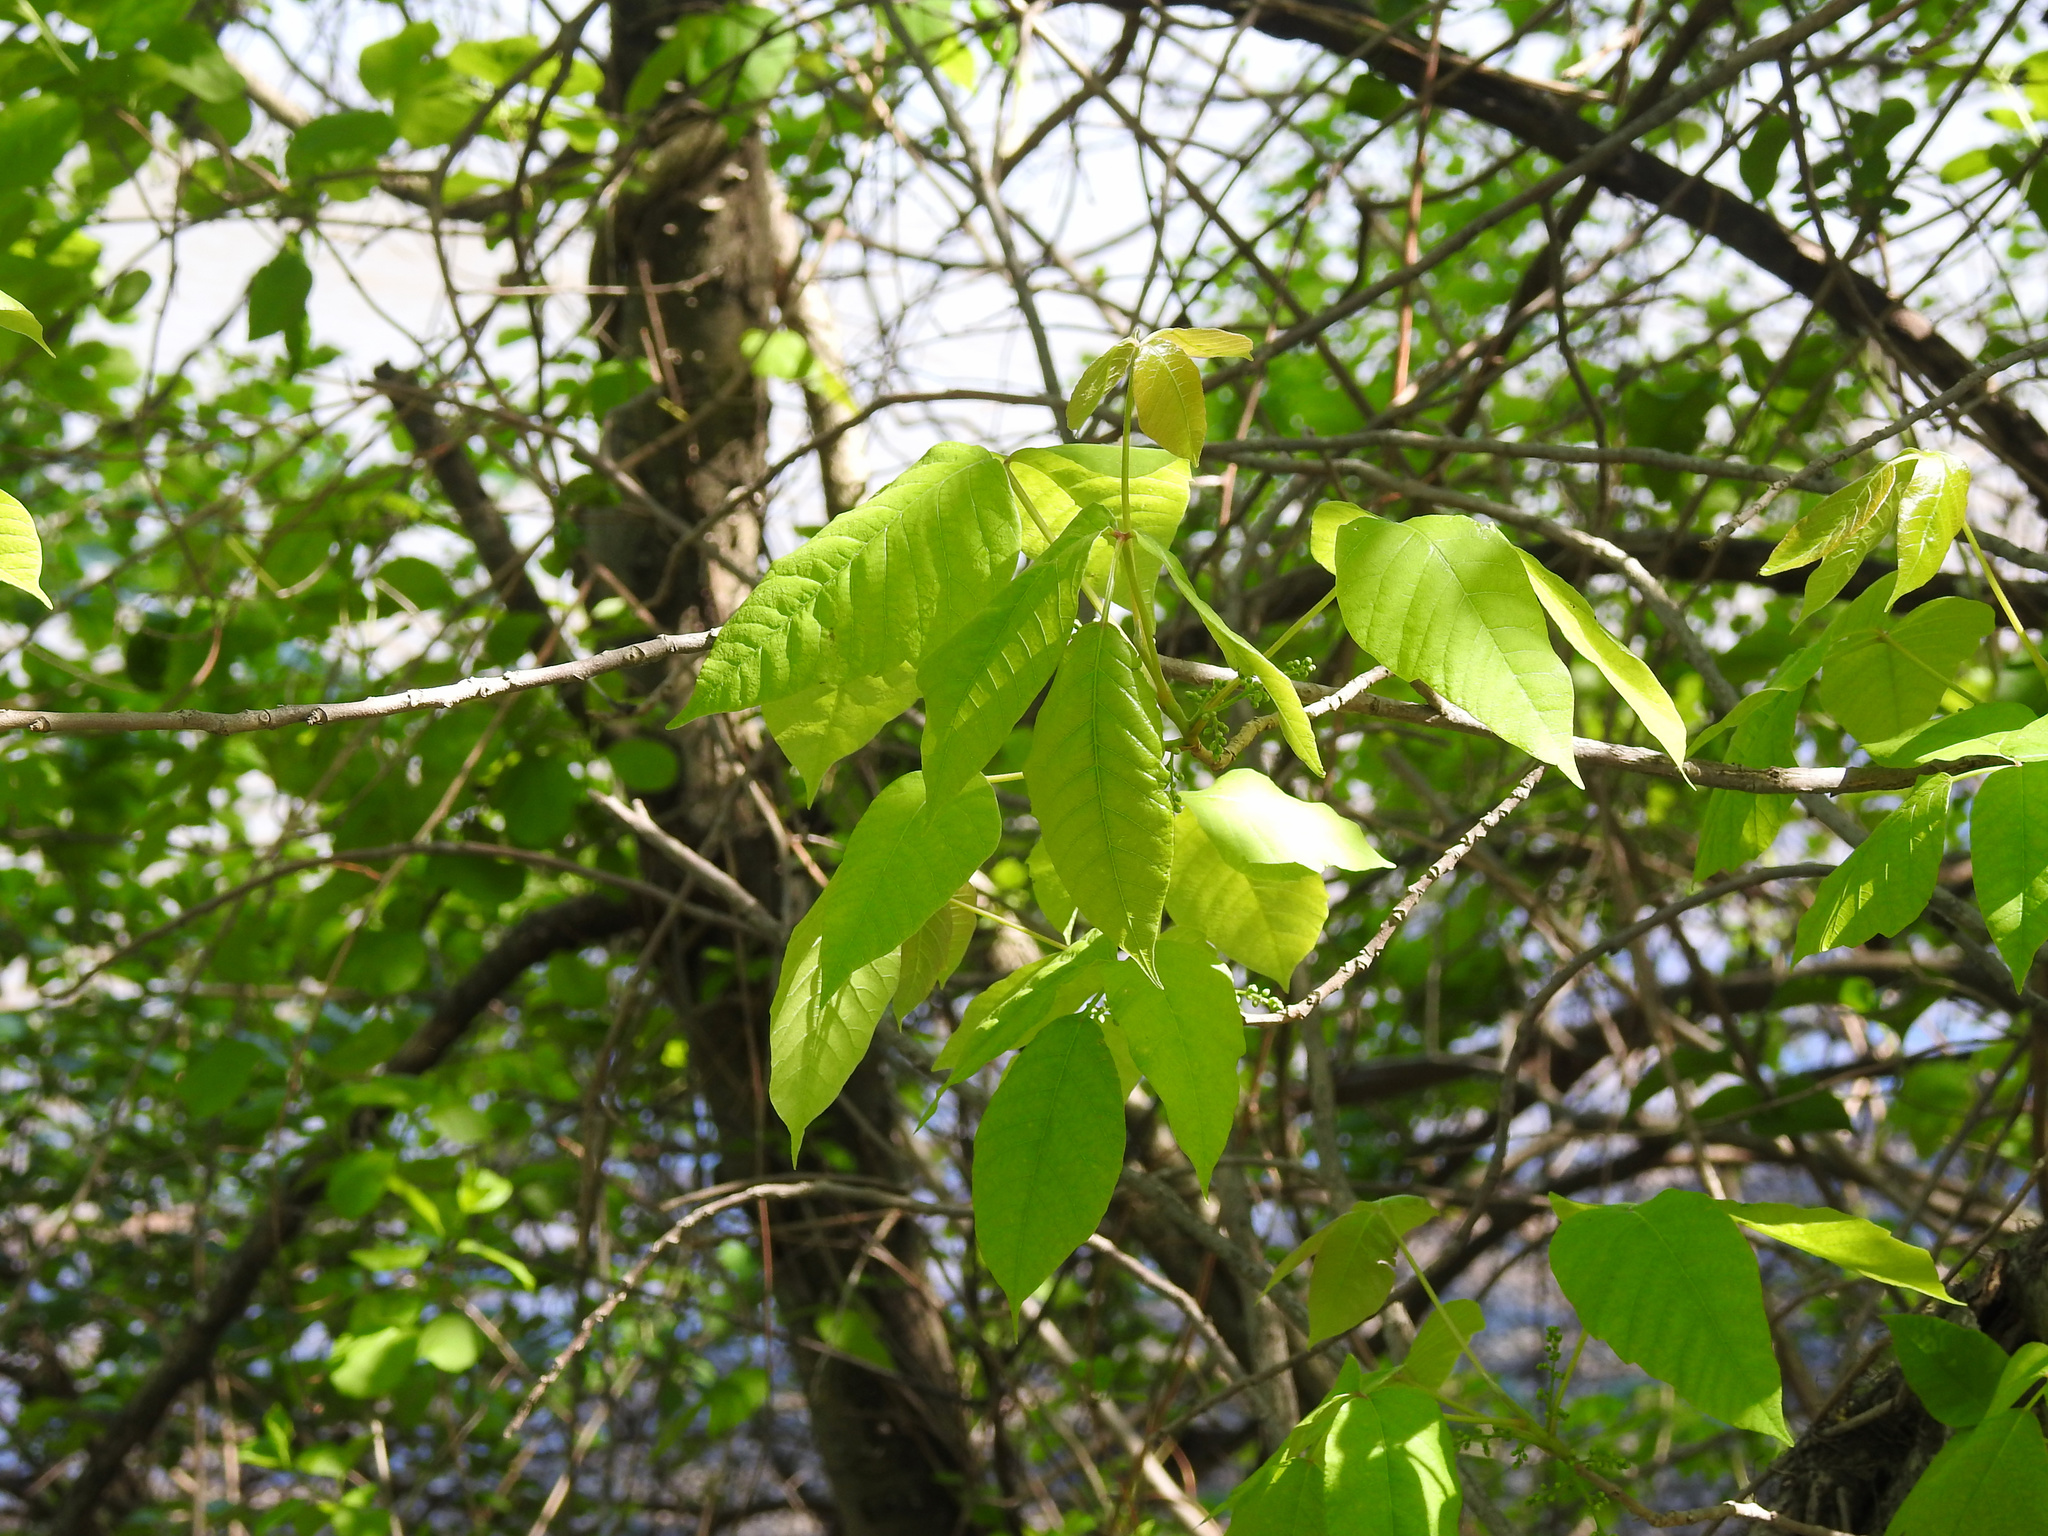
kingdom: Plantae
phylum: Tracheophyta
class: Magnoliopsida
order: Sapindales
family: Anacardiaceae
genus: Toxicodendron
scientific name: Toxicodendron radicans
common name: Poison ivy
